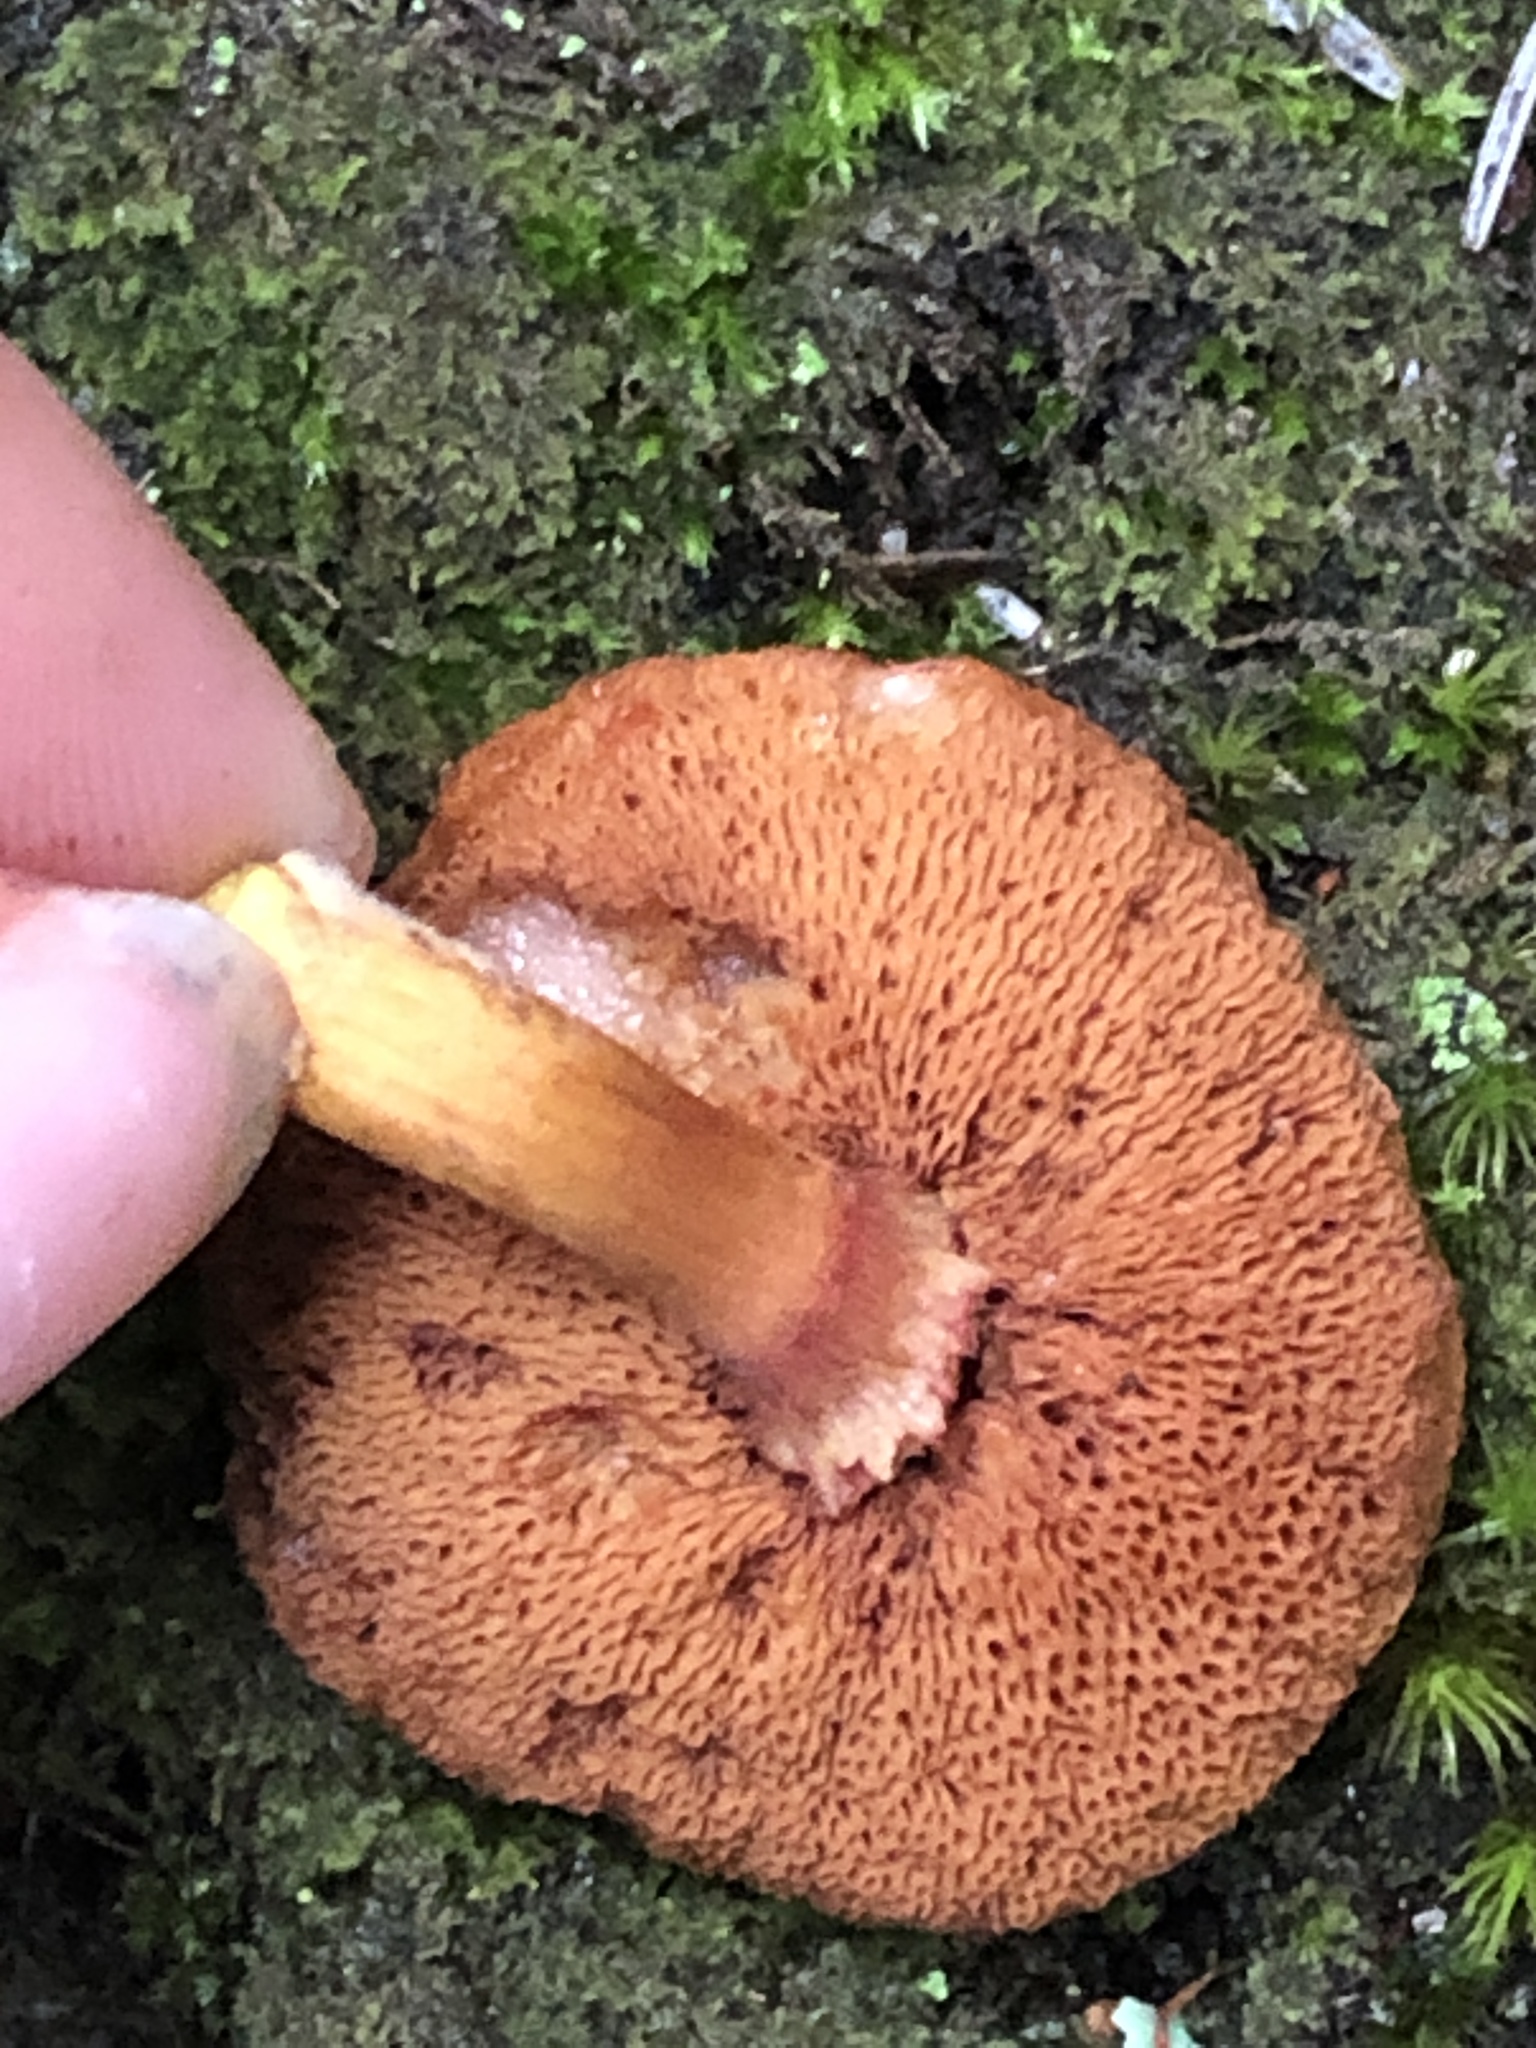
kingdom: Fungi
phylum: Basidiomycota
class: Agaricomycetes
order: Boletales
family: Boletaceae
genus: Chalciporus
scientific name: Chalciporus piperatus
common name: Peppery bolete
